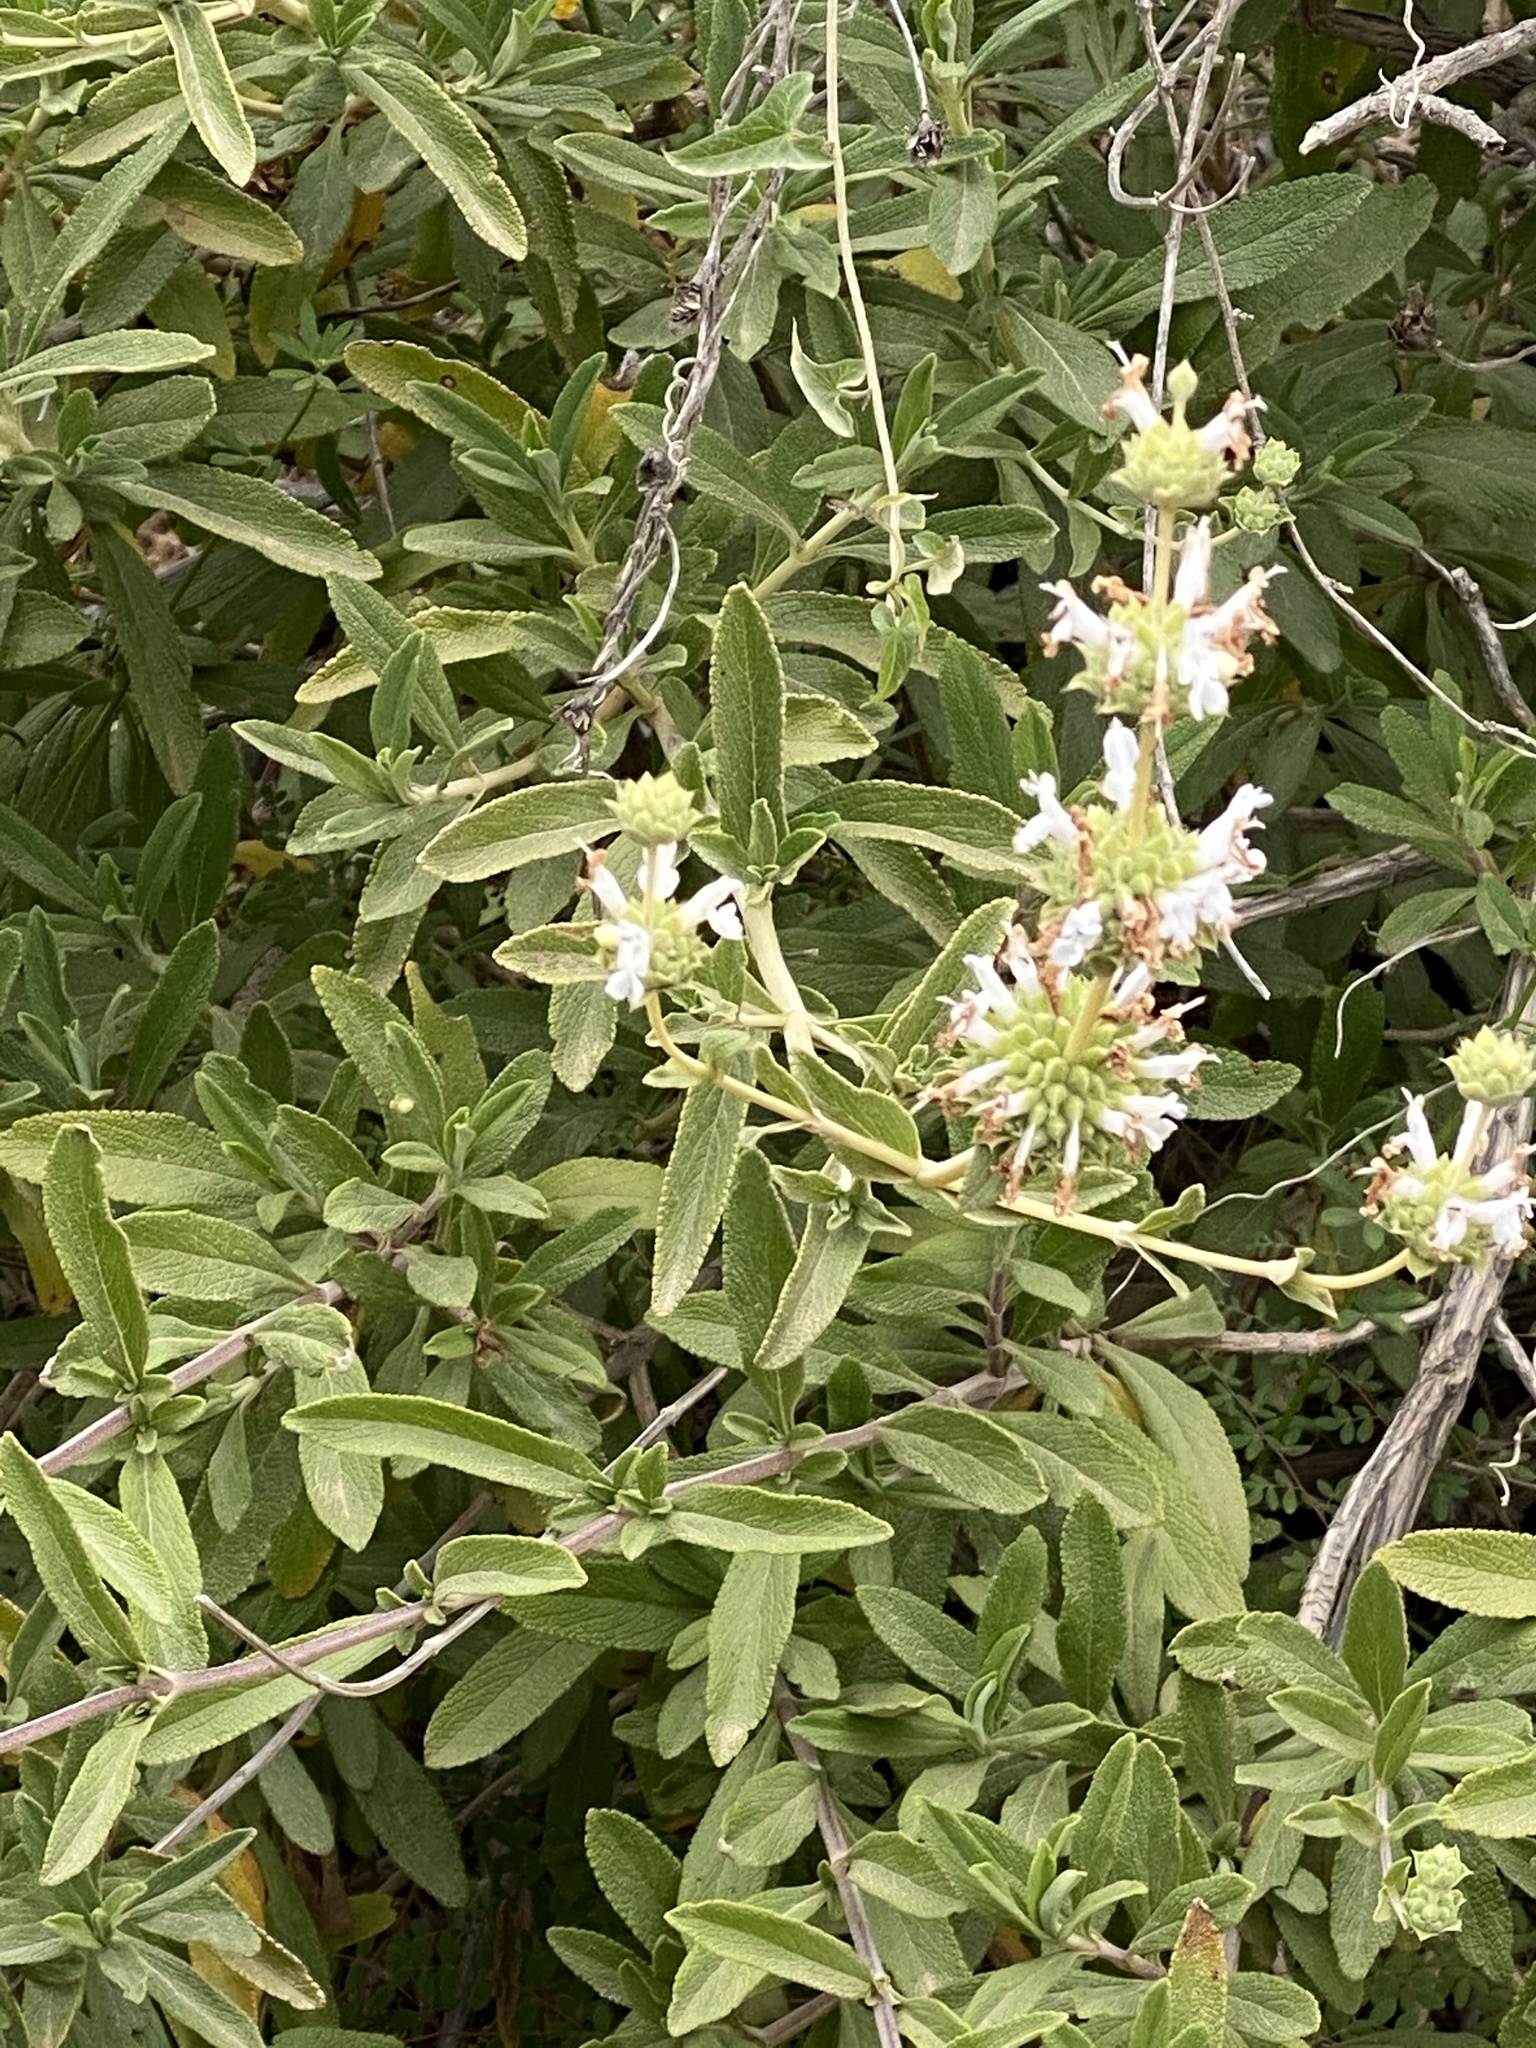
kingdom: Plantae
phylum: Tracheophyta
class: Magnoliopsida
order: Lamiales
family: Lamiaceae
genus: Salvia
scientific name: Salvia mellifera
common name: Black sage
